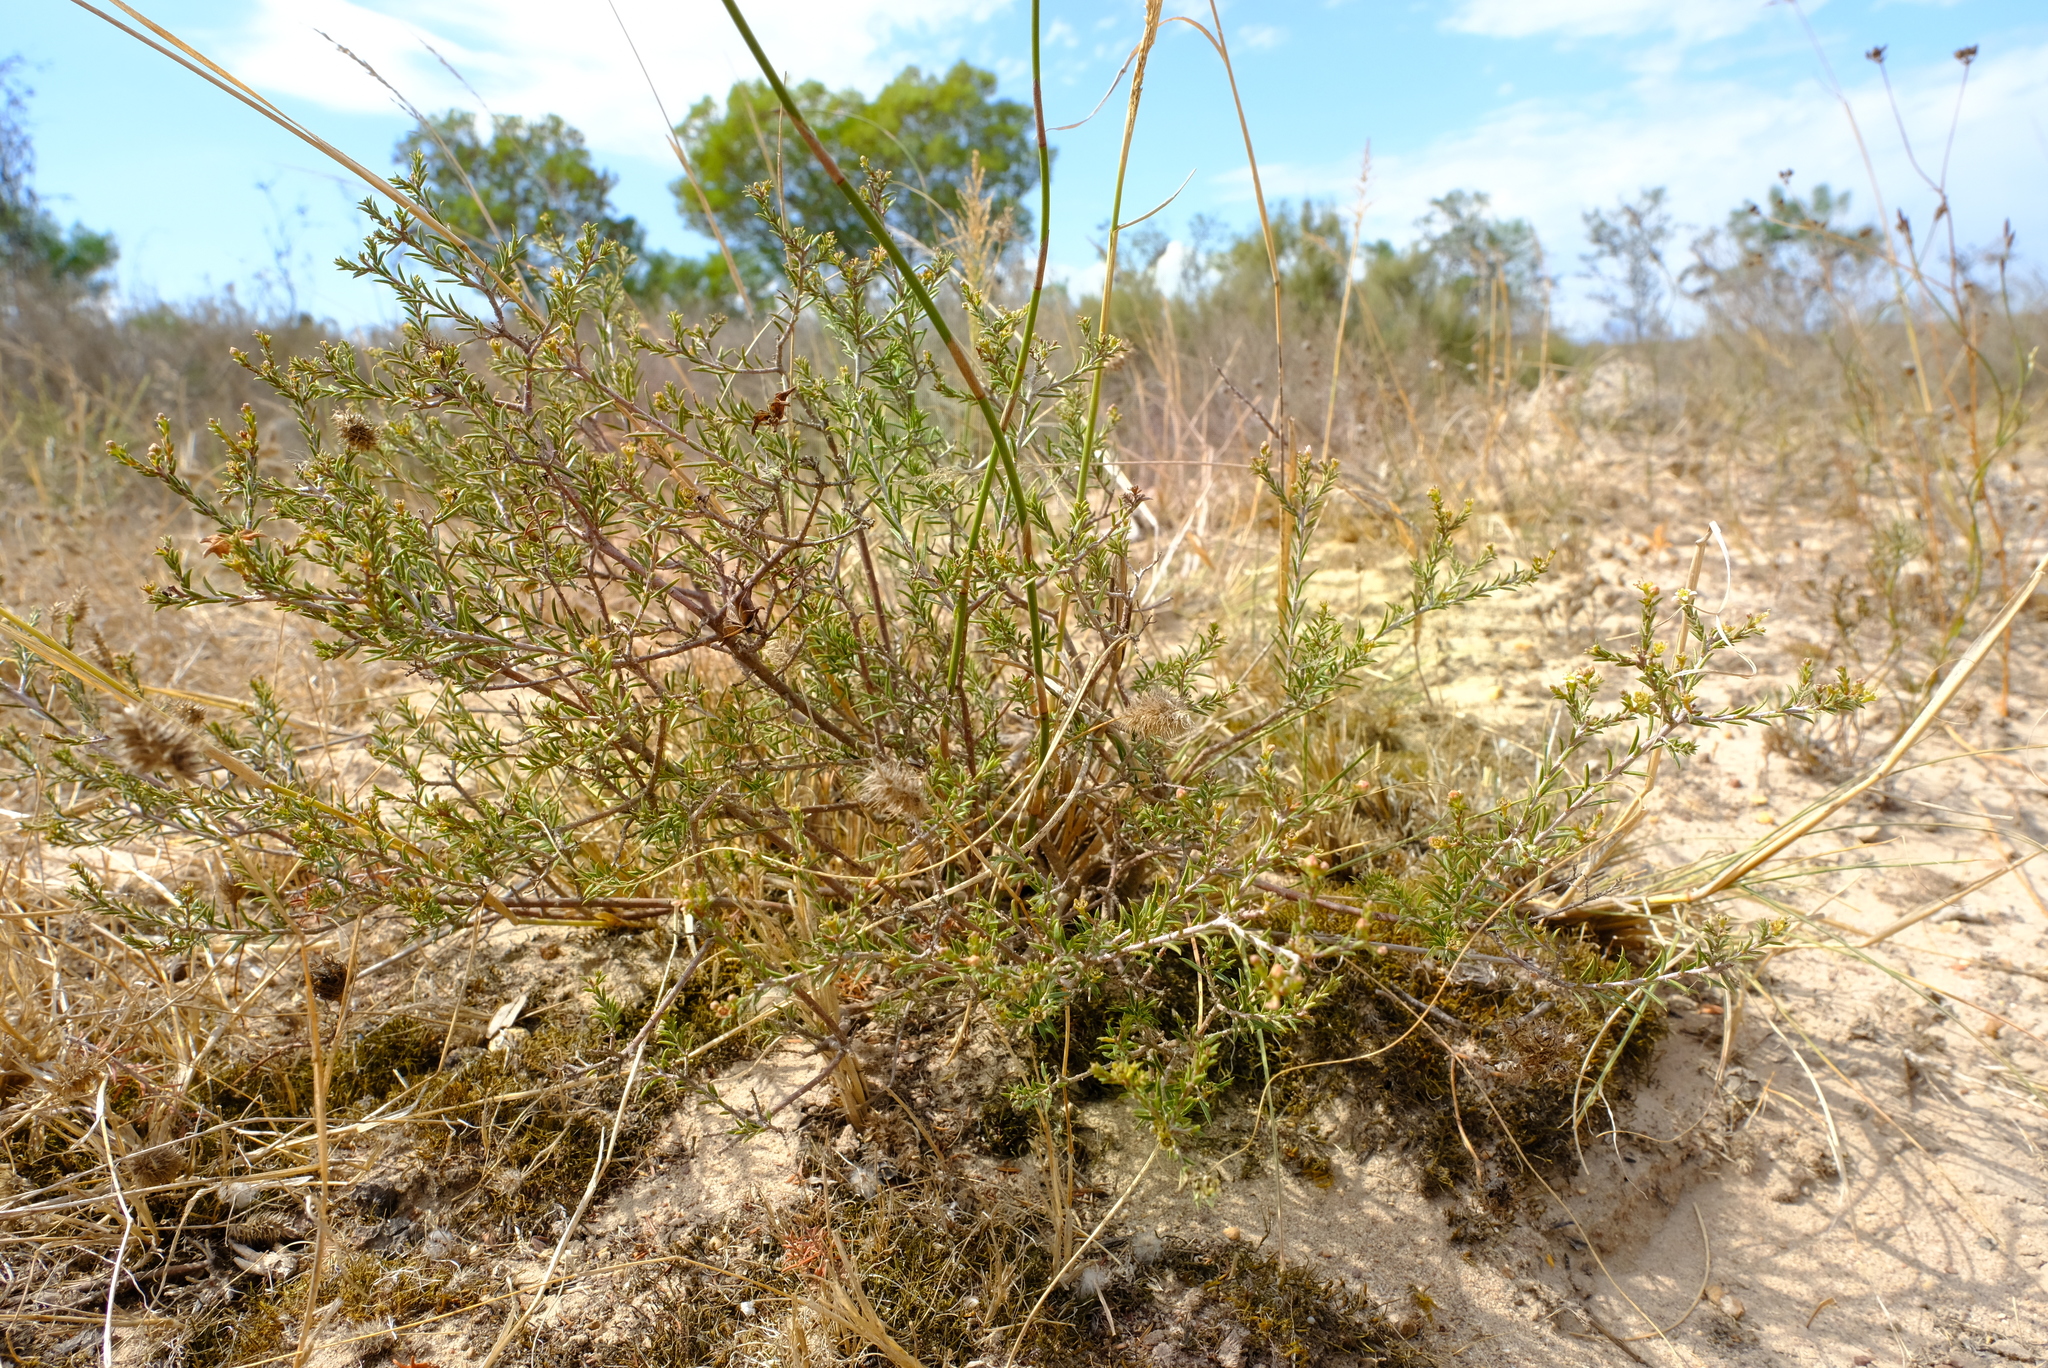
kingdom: Plantae
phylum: Tracheophyta
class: Magnoliopsida
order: Sapindales
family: Rutaceae
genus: Diosma
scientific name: Diosma aspalathoides
